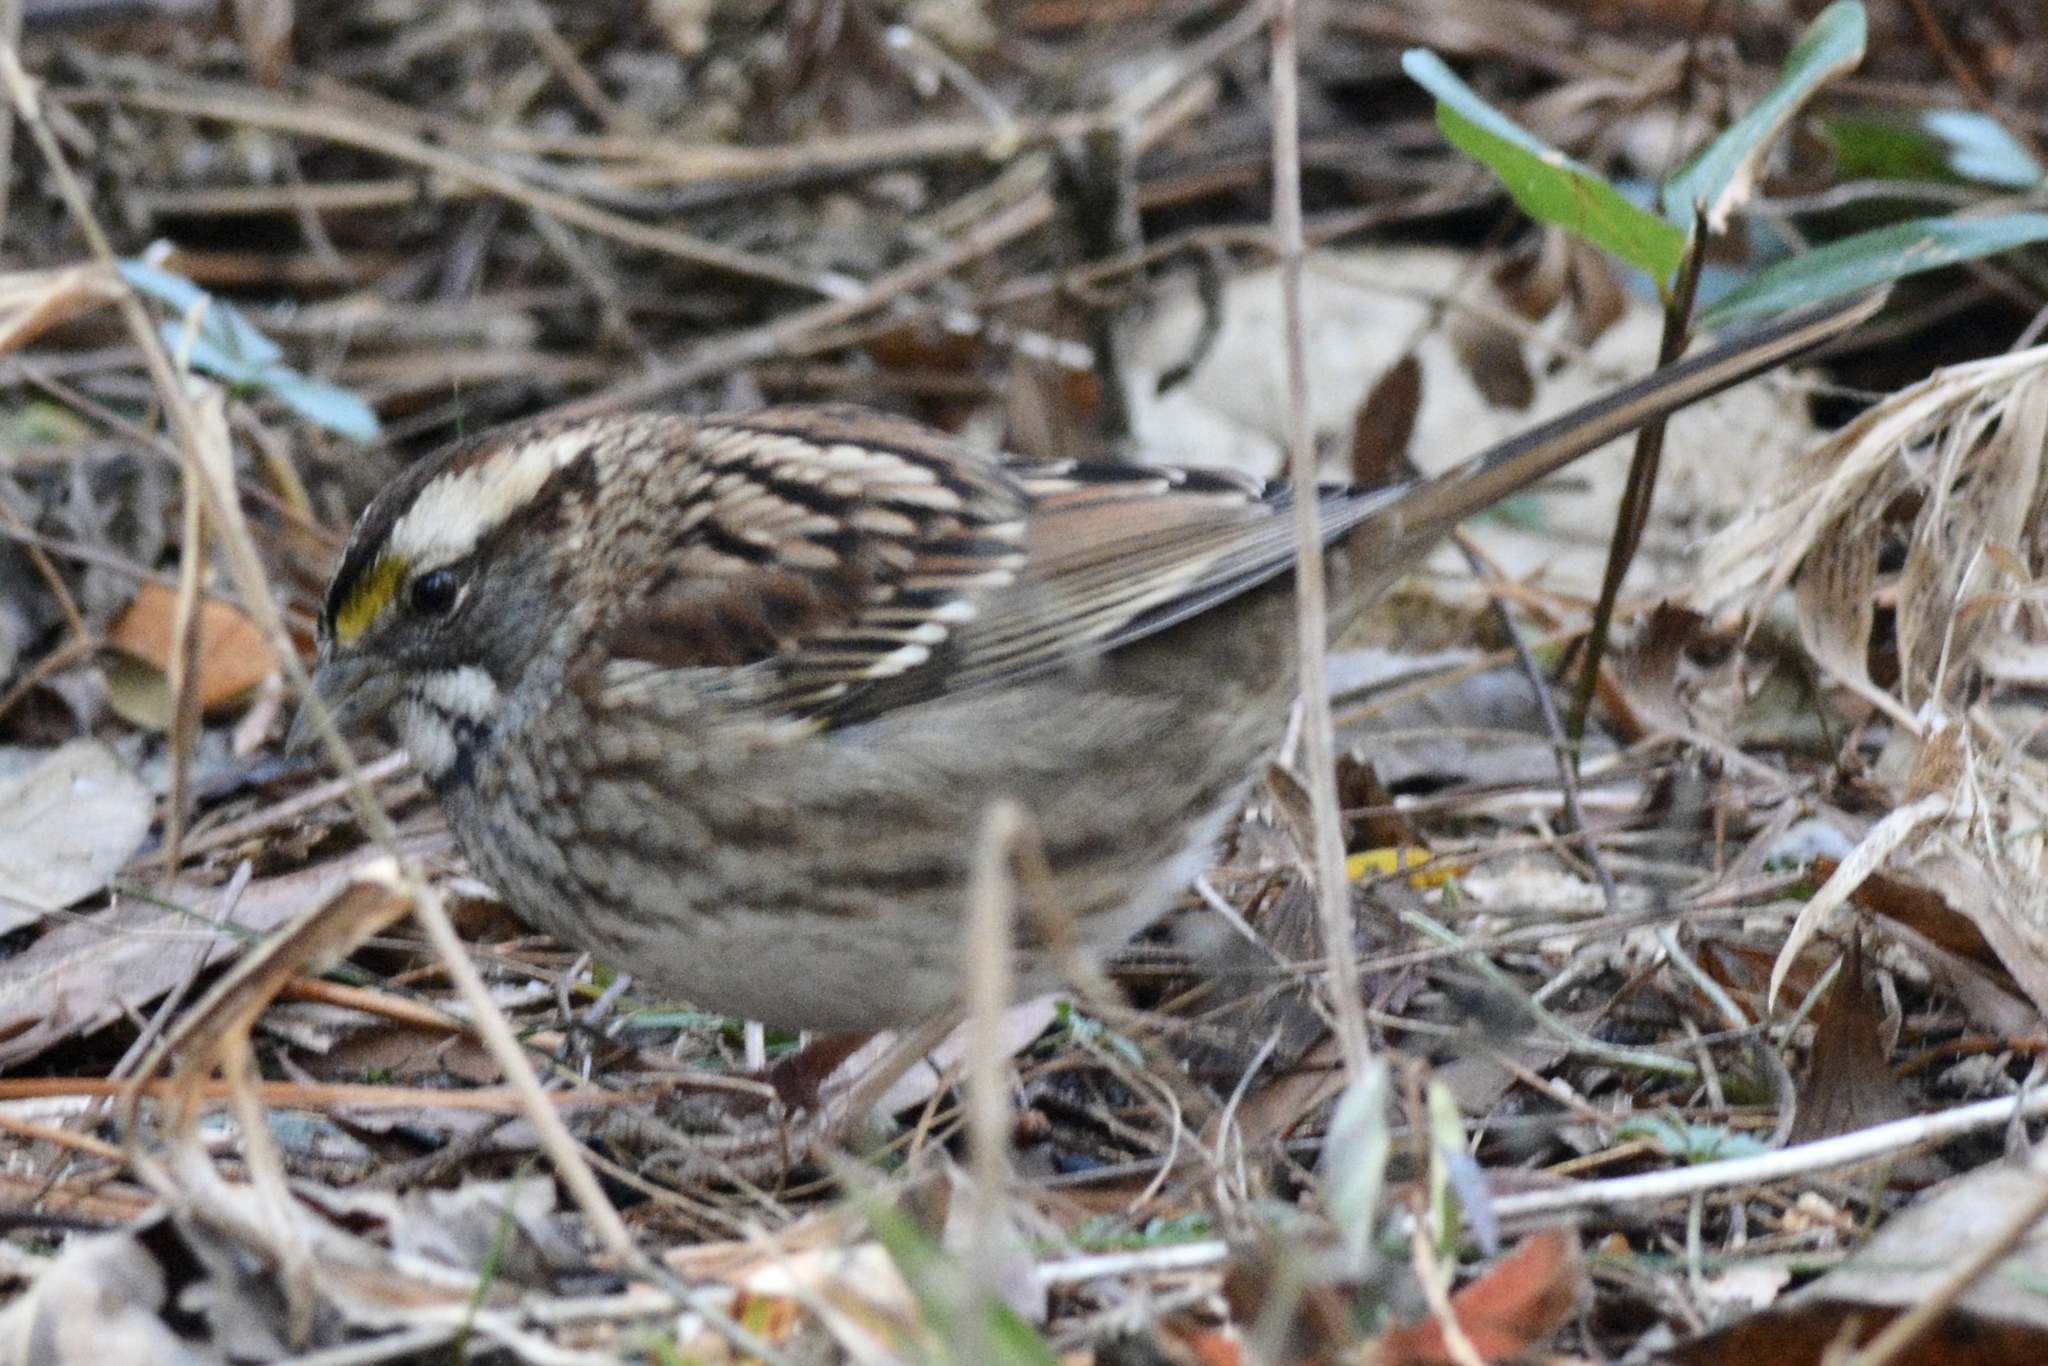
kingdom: Animalia
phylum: Chordata
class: Aves
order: Passeriformes
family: Passerellidae
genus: Zonotrichia
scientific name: Zonotrichia albicollis
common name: White-throated sparrow
